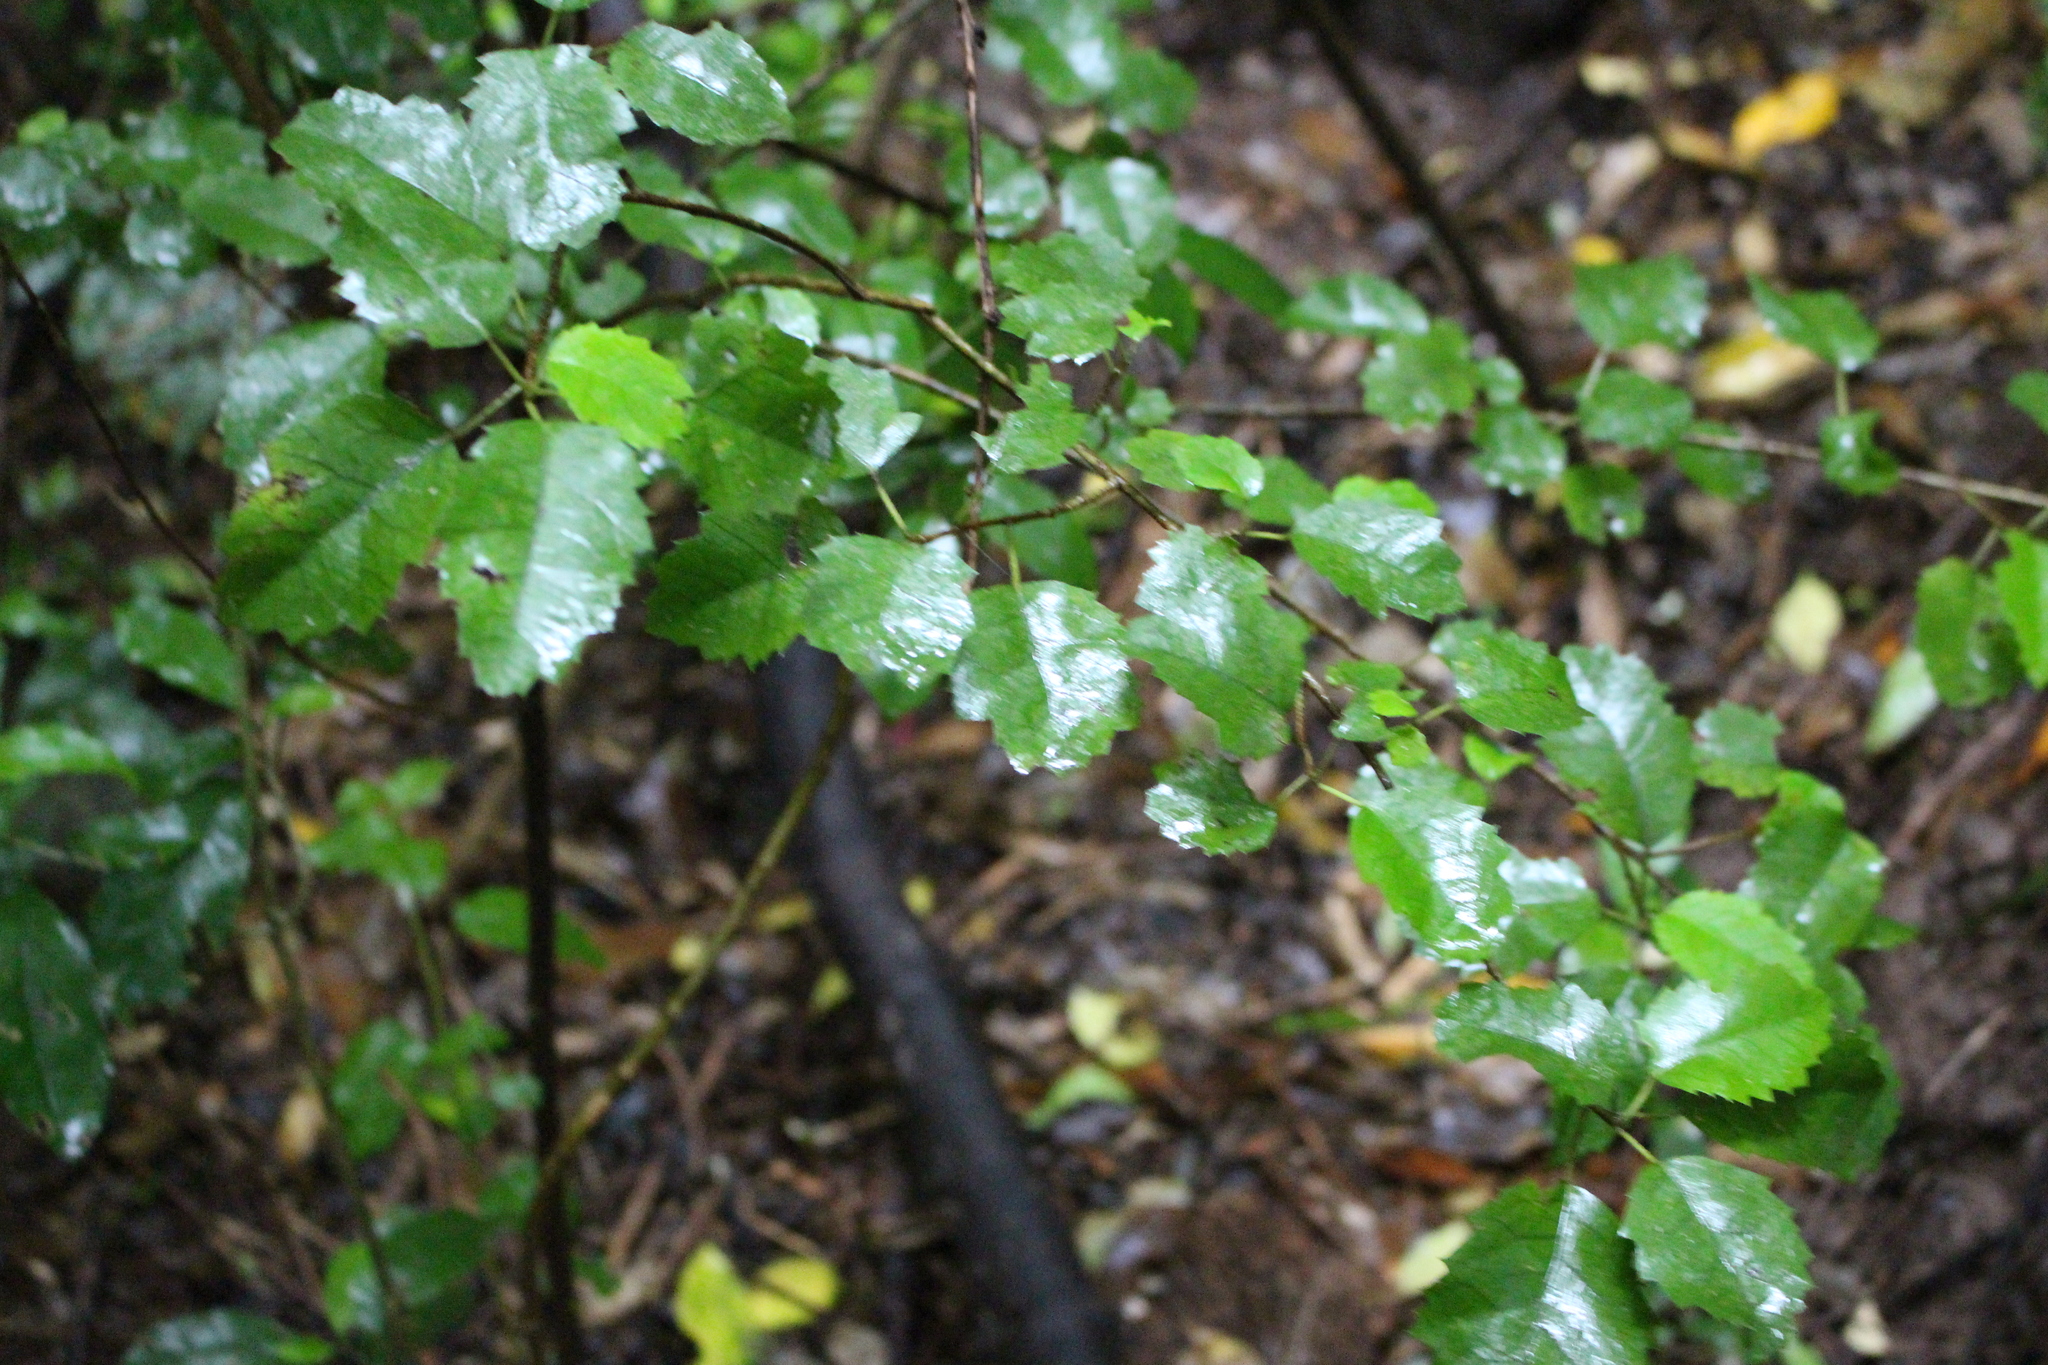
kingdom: Plantae
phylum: Tracheophyta
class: Magnoliopsida
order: Malvales
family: Malvaceae
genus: Hoheria
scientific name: Hoheria populnea
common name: Lacebark
